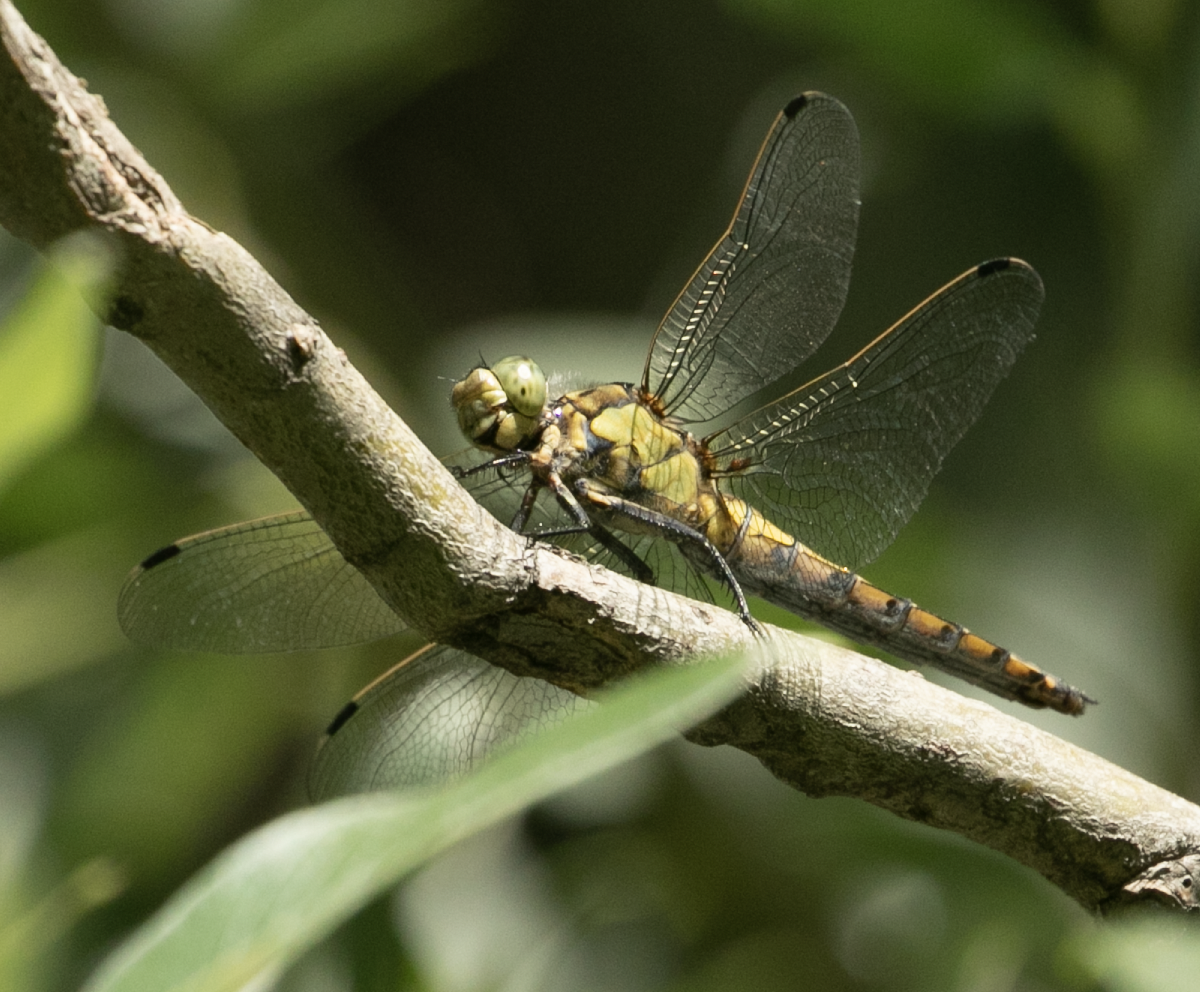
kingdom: Animalia
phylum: Arthropoda
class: Insecta
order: Odonata
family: Libellulidae
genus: Orthetrum
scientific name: Orthetrum cancellatum
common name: Black-tailed skimmer
